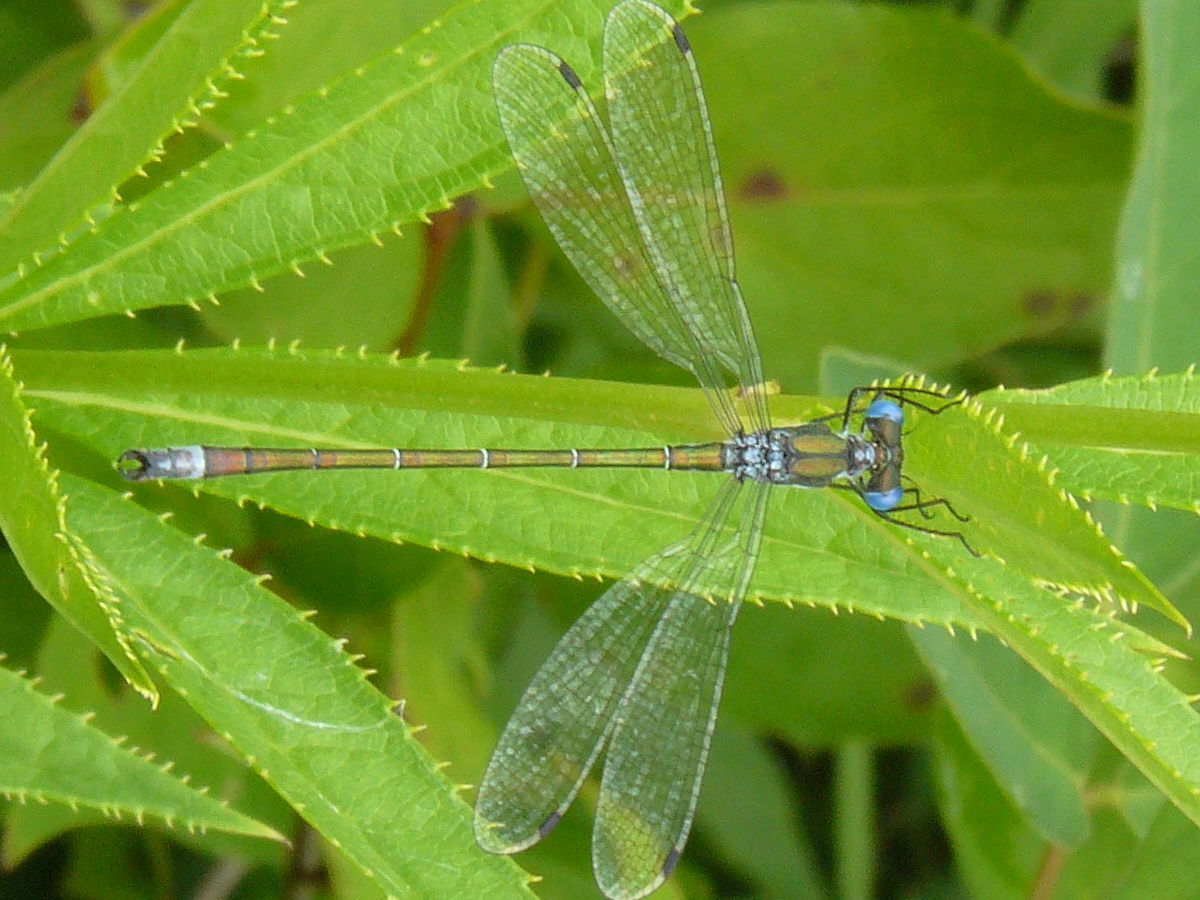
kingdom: Animalia
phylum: Arthropoda
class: Insecta
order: Odonata
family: Lestidae
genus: Lestes
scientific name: Lestes dryas
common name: Scarce emerald damselfly
